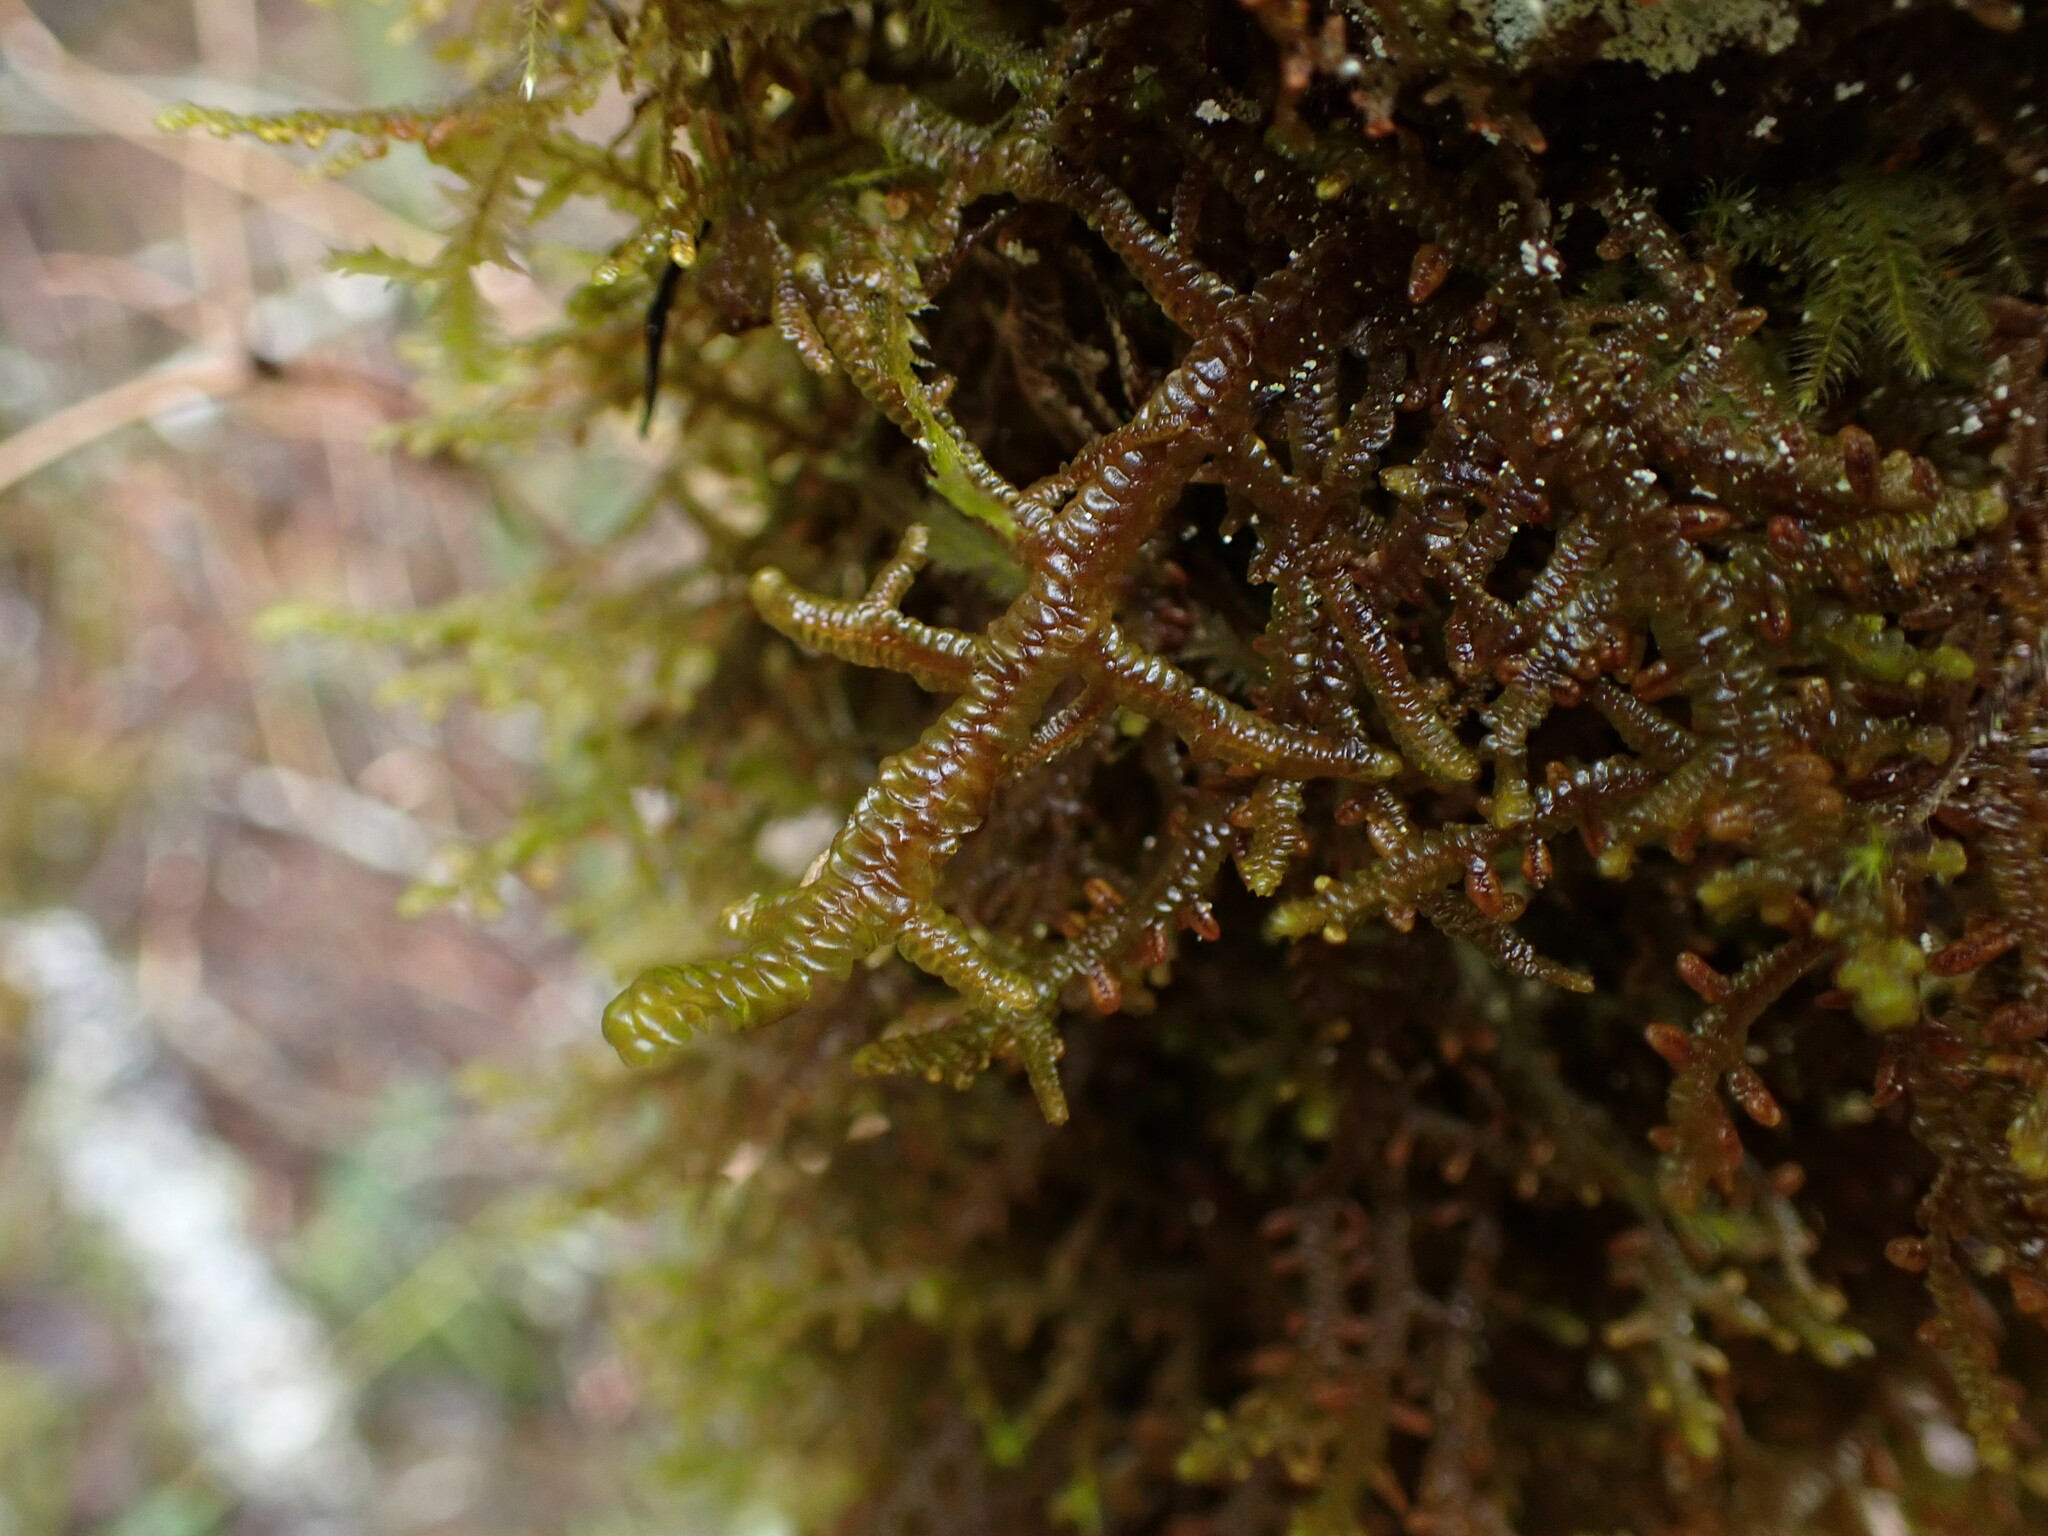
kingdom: Plantae
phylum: Marchantiophyta
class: Jungermanniopsida
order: Porellales
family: Porellaceae
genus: Porella
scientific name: Porella navicularis
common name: Tree ruffle liverwort
